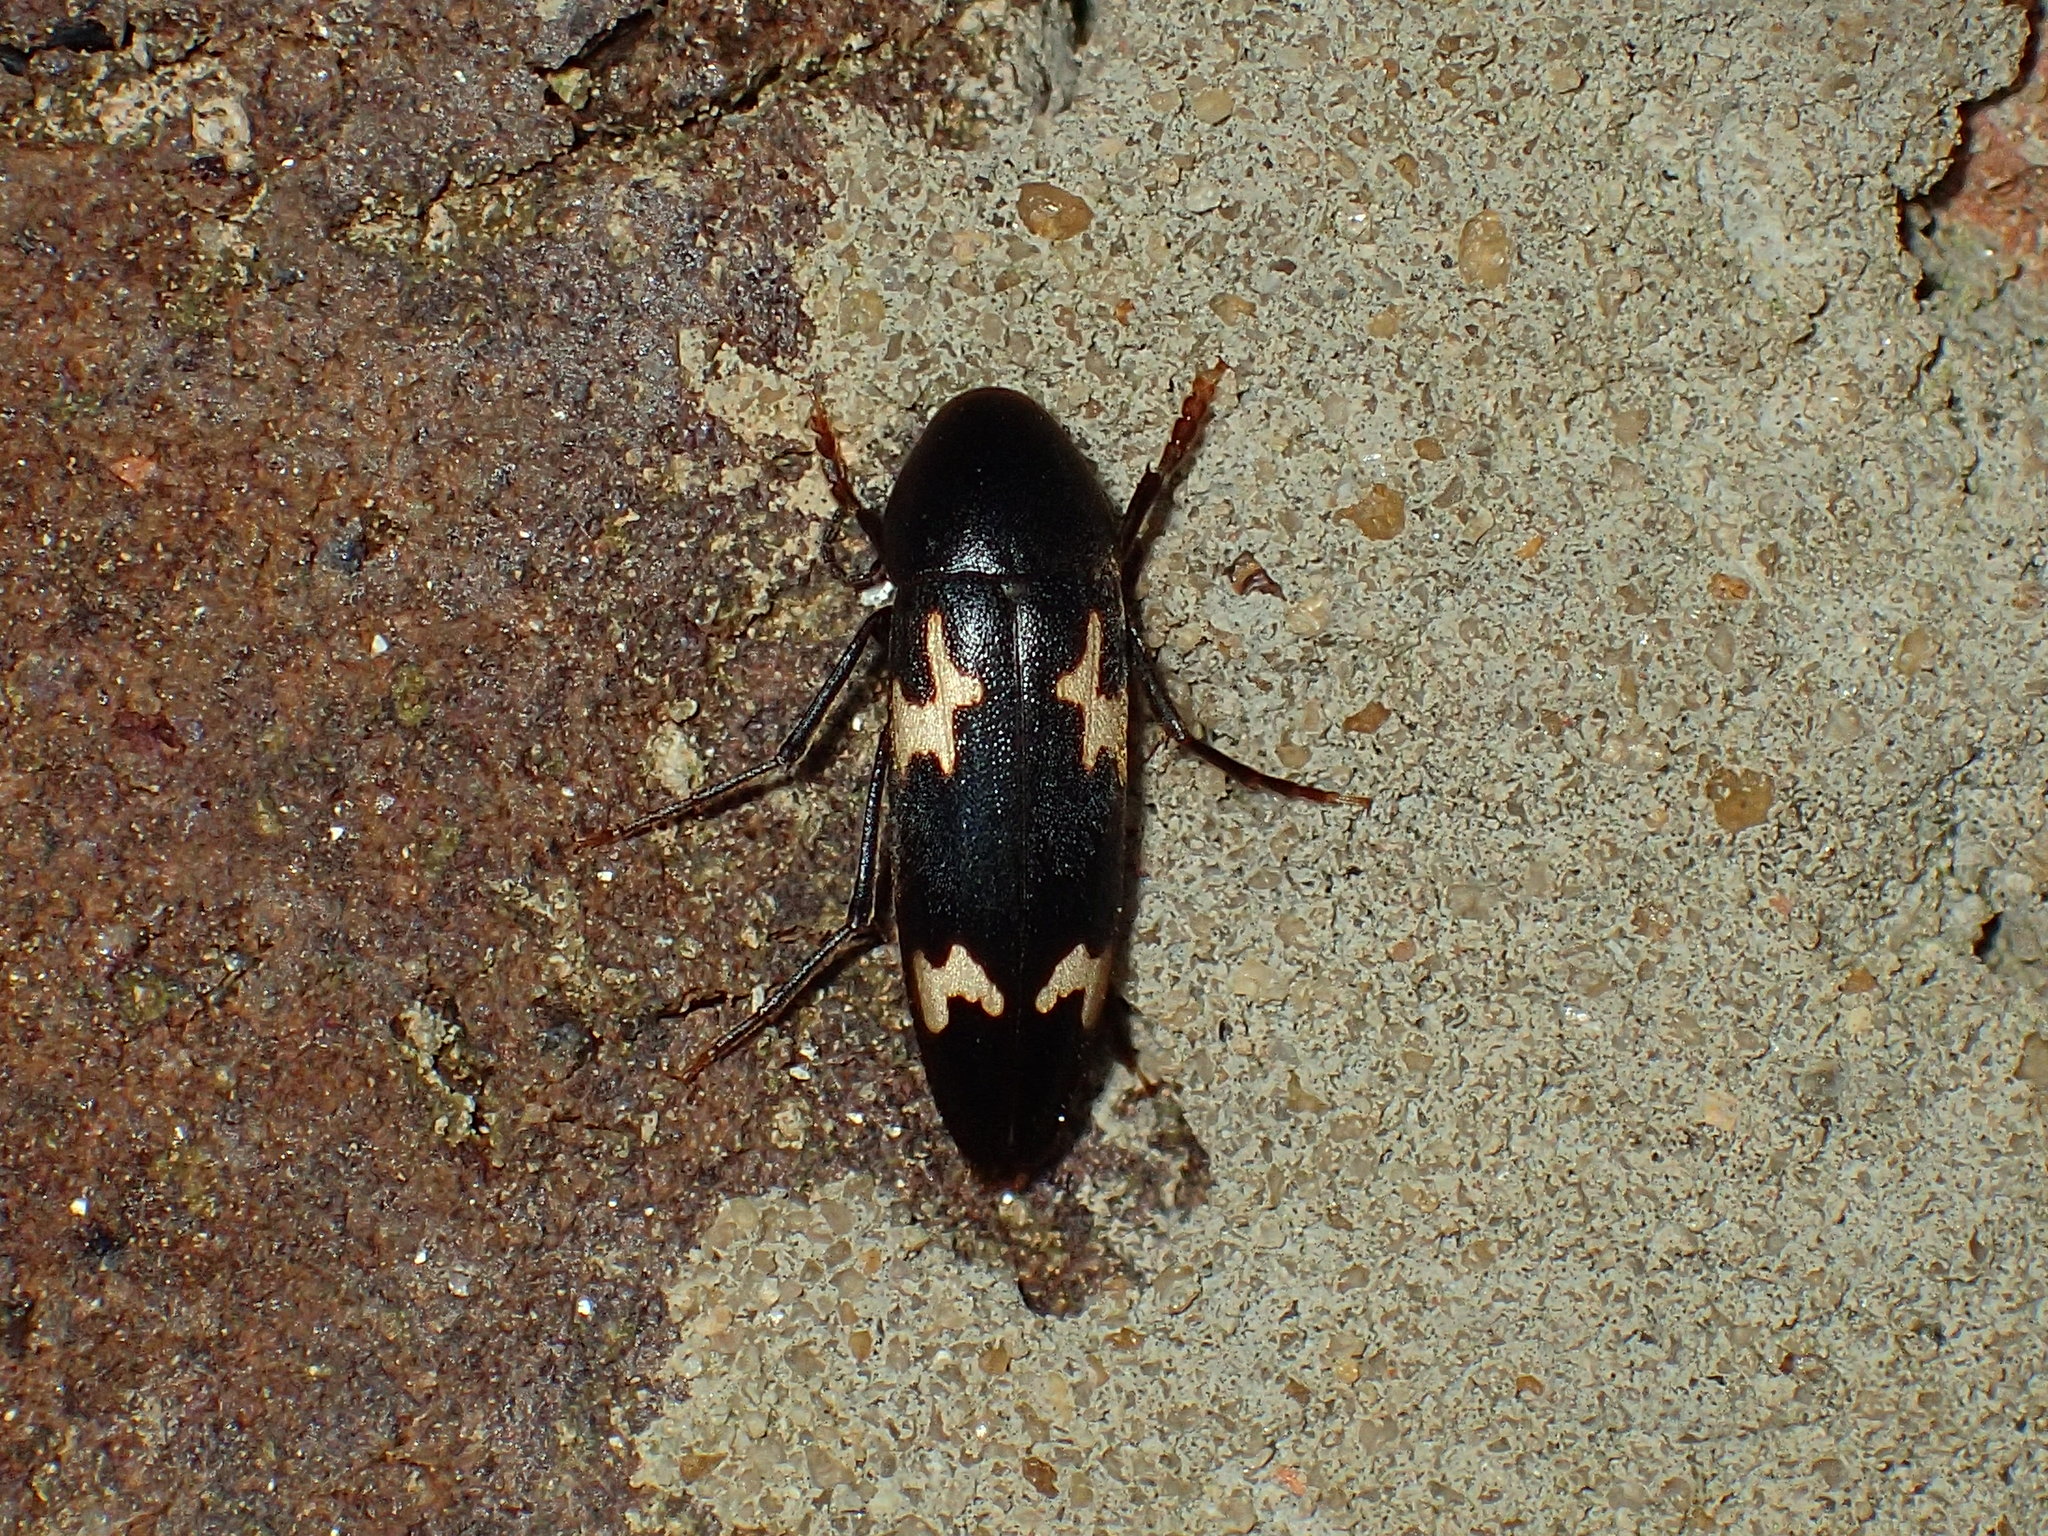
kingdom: Animalia
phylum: Arthropoda
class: Insecta
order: Coleoptera
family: Melandryidae
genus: Dircaea
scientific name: Dircaea liturata
